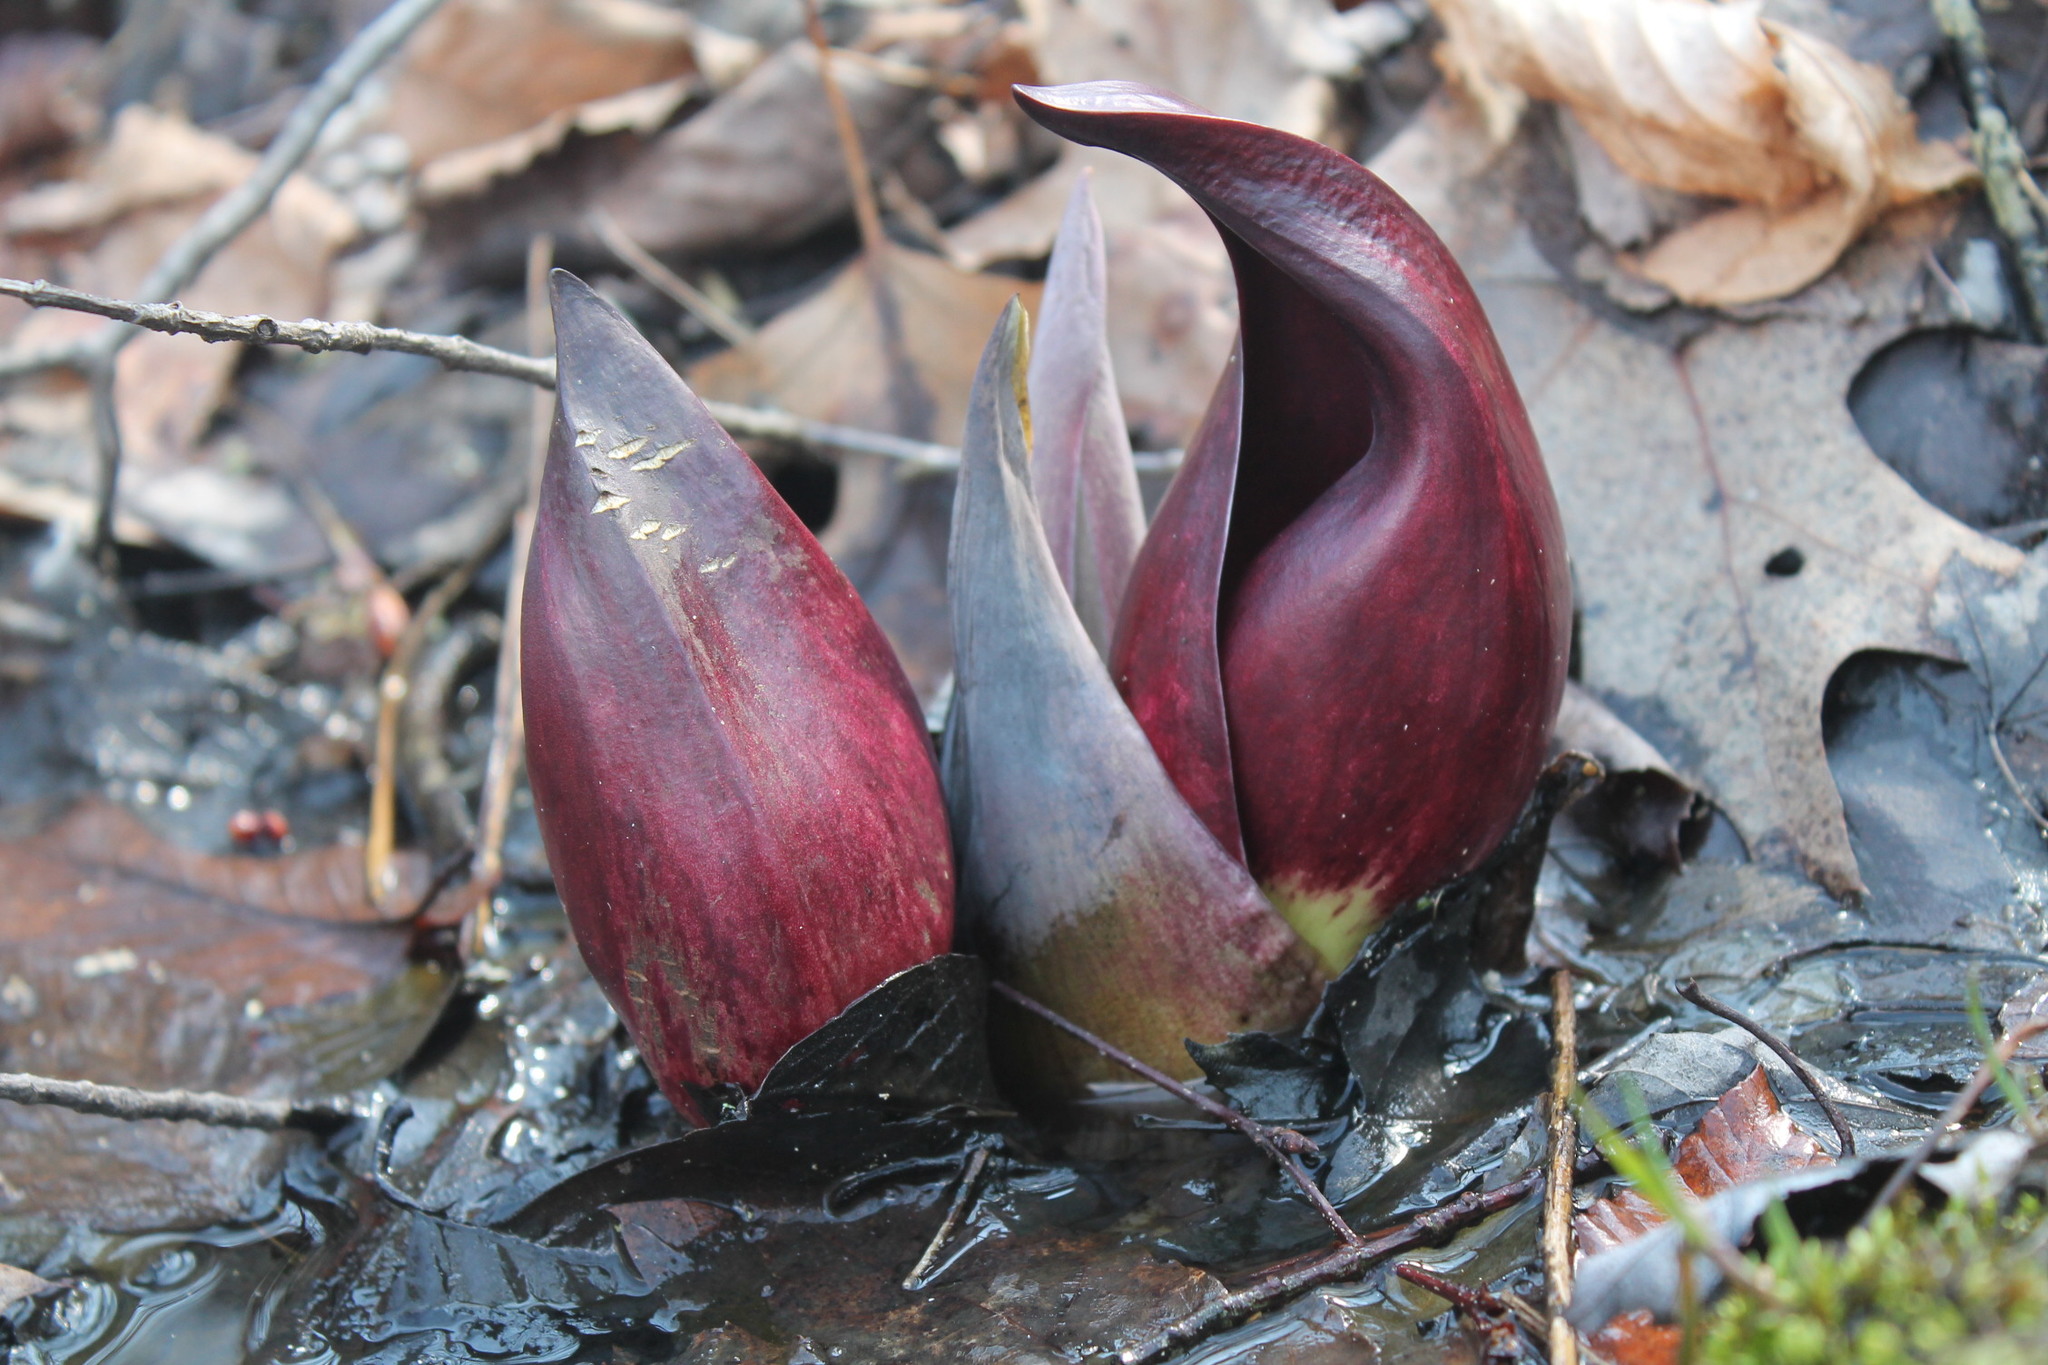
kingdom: Plantae
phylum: Tracheophyta
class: Liliopsida
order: Alismatales
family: Araceae
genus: Symplocarpus
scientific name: Symplocarpus foetidus
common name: Eastern skunk cabbage
